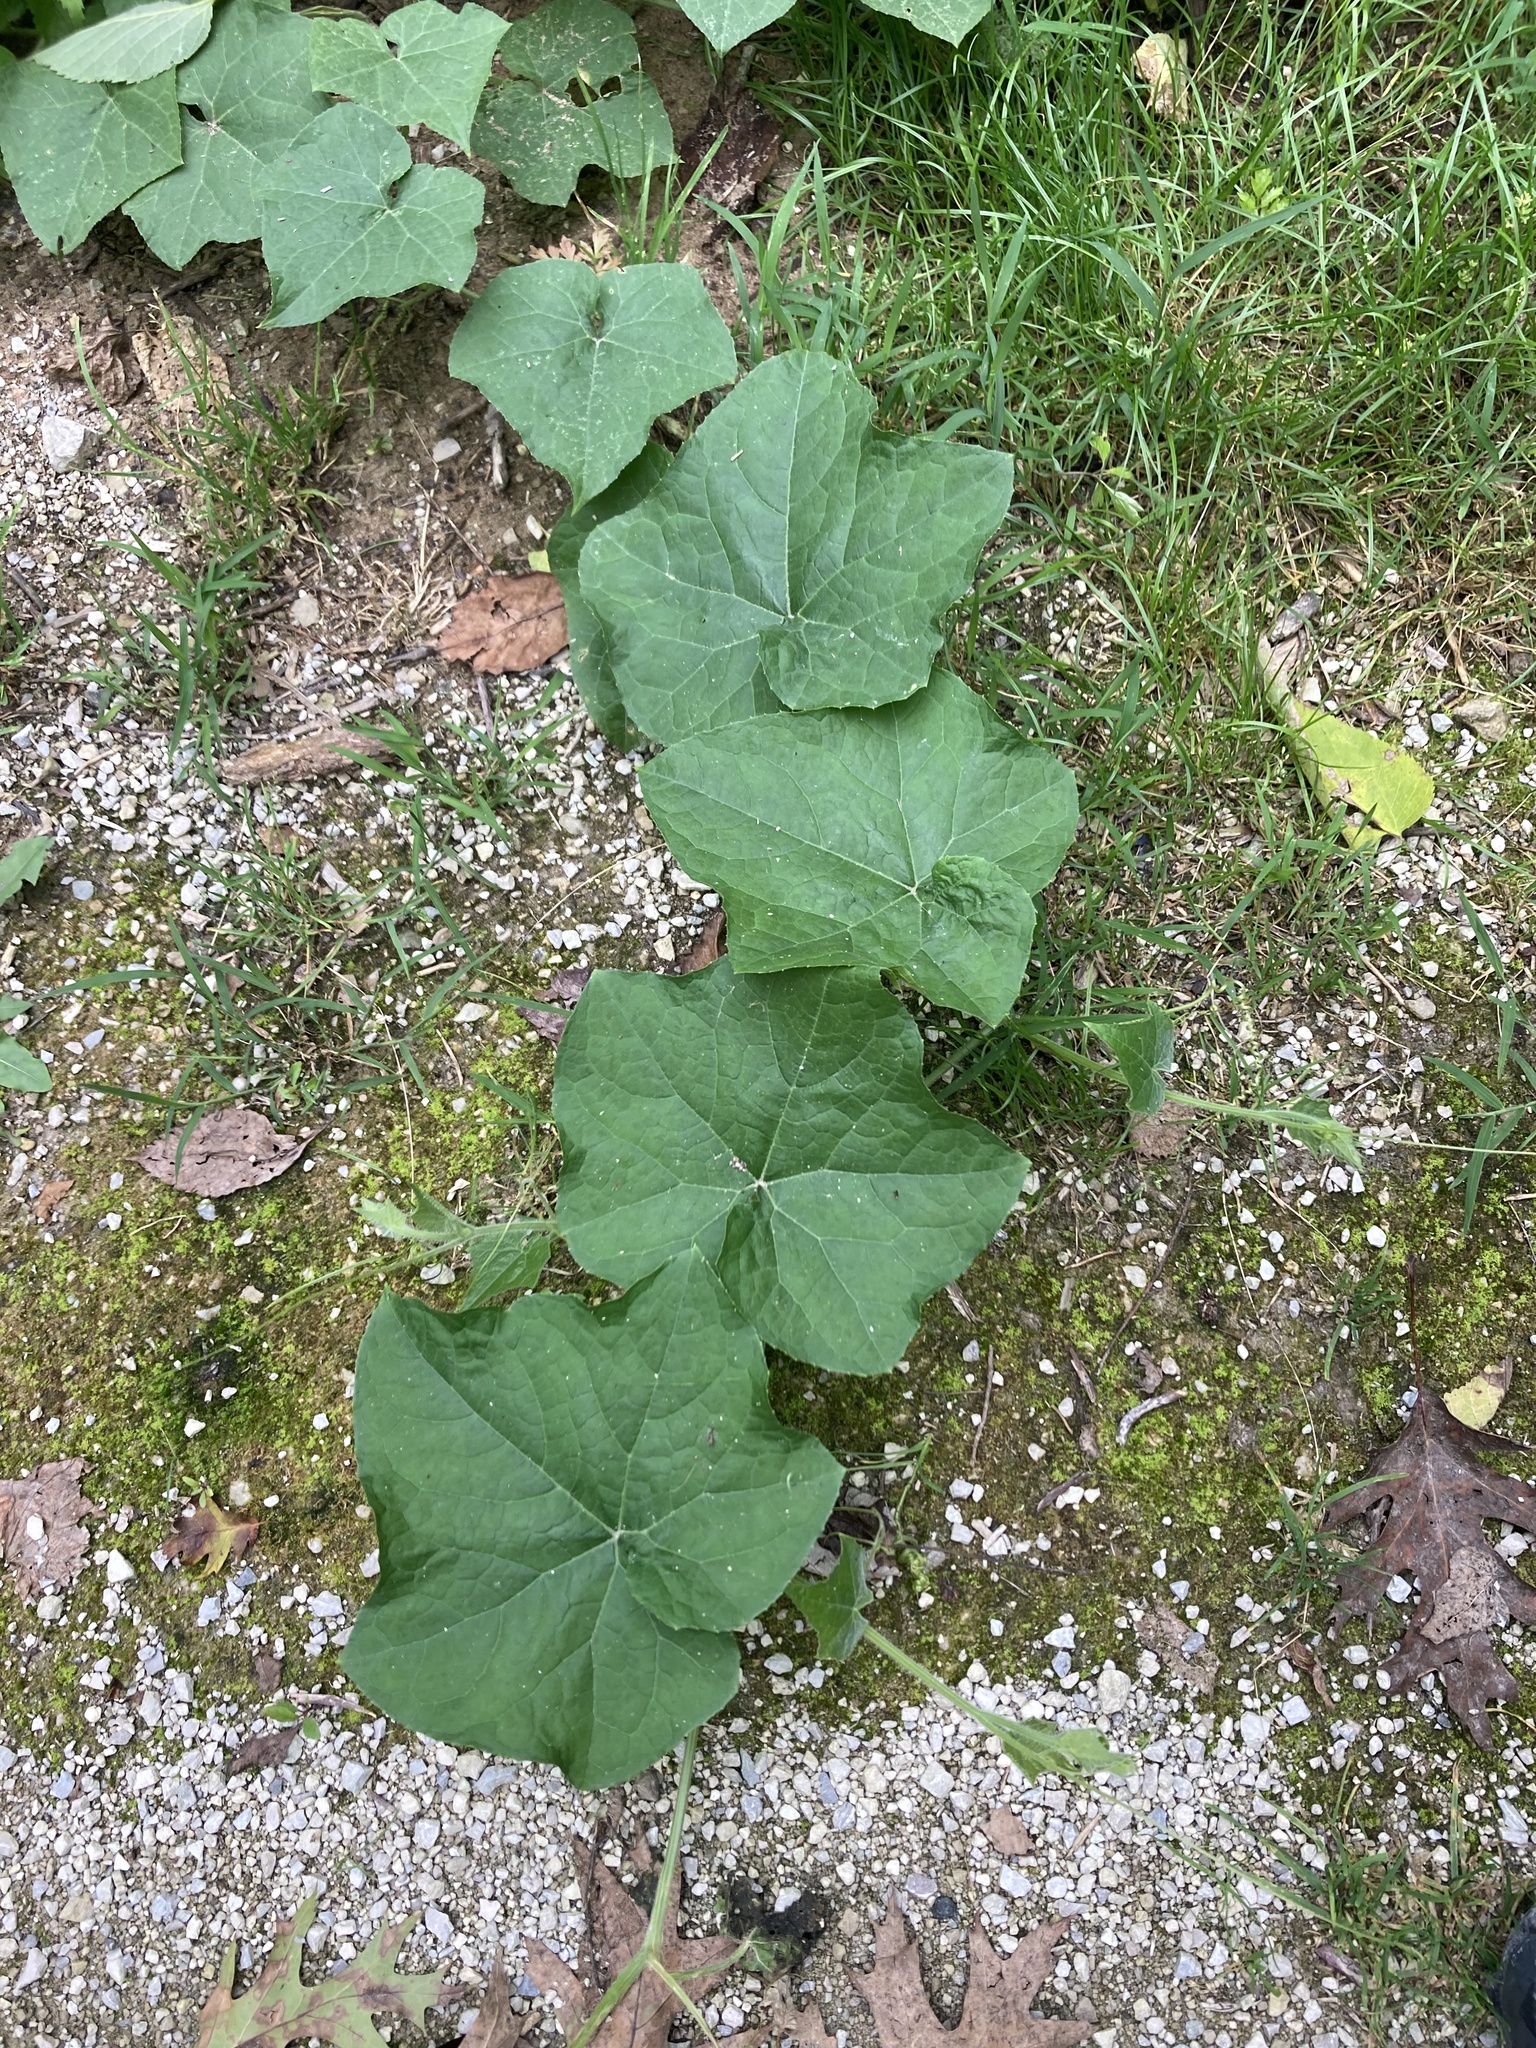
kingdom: Plantae
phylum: Tracheophyta
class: Magnoliopsida
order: Cucurbitales
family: Cucurbitaceae
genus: Sicyos
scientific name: Sicyos angulatus
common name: Angled burr cucumber
